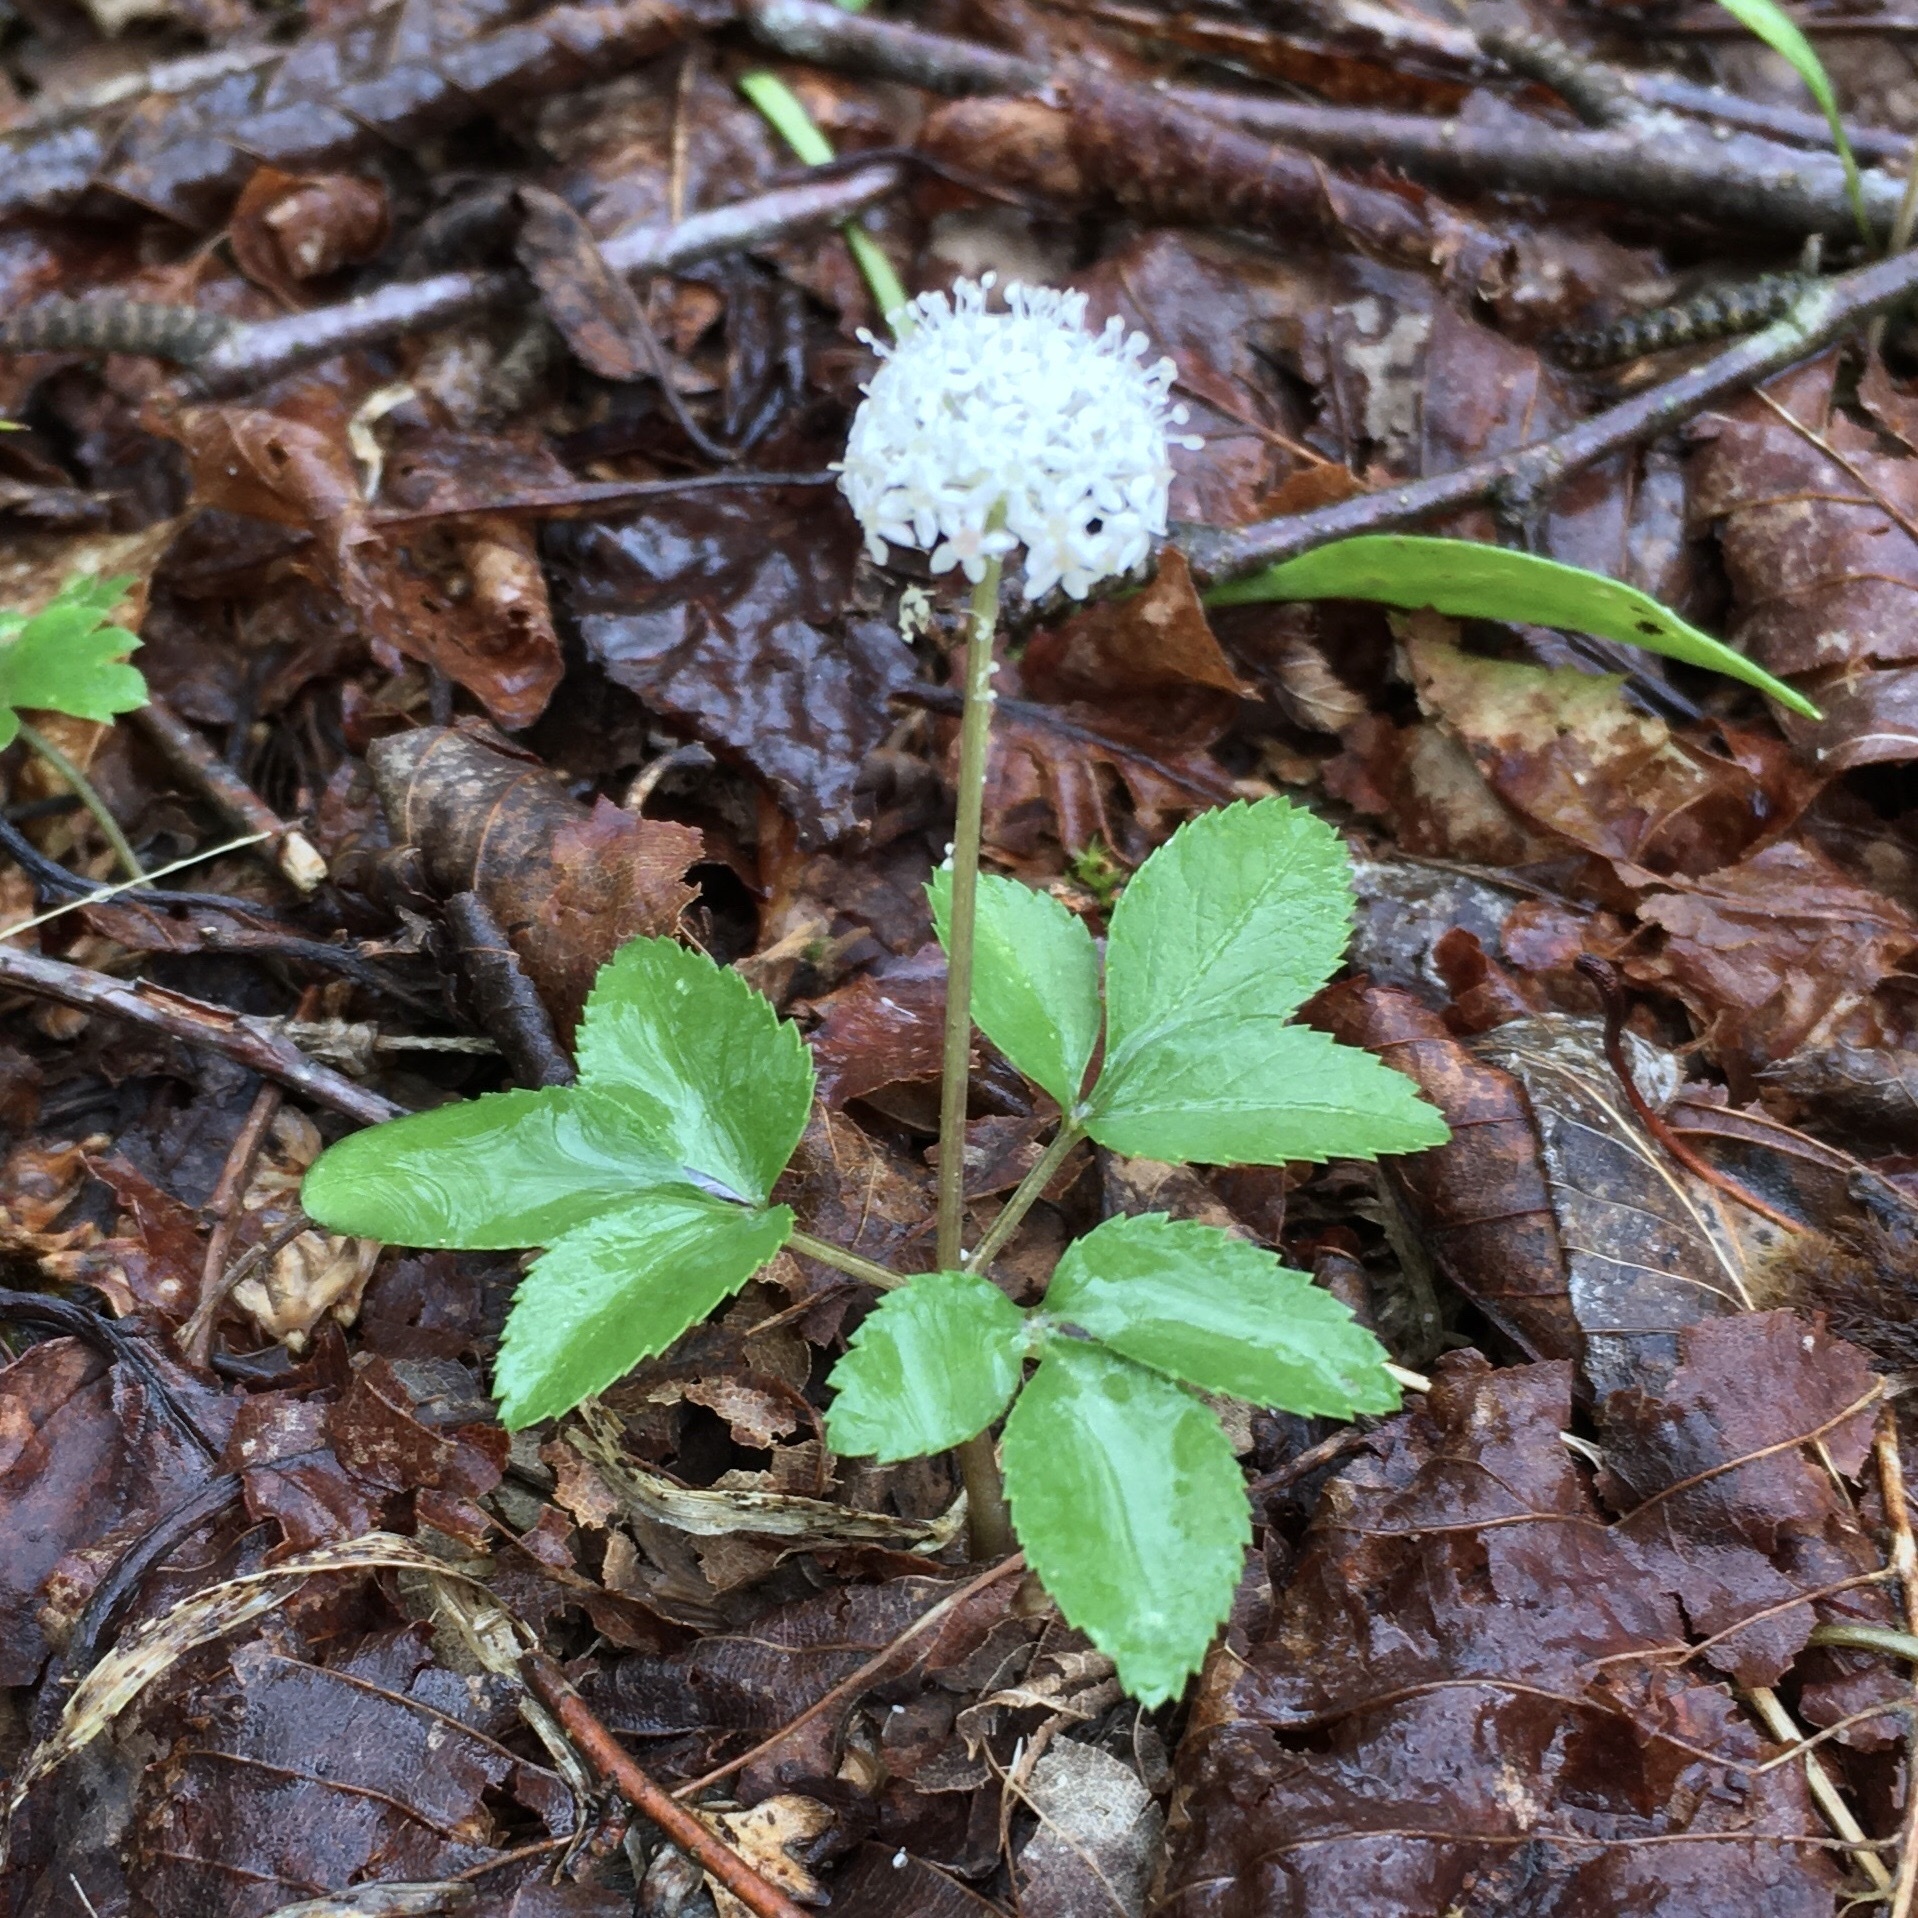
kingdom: Plantae
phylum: Tracheophyta
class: Magnoliopsida
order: Apiales
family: Araliaceae
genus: Panax
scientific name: Panax trifolius
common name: Dwarf ginseng
